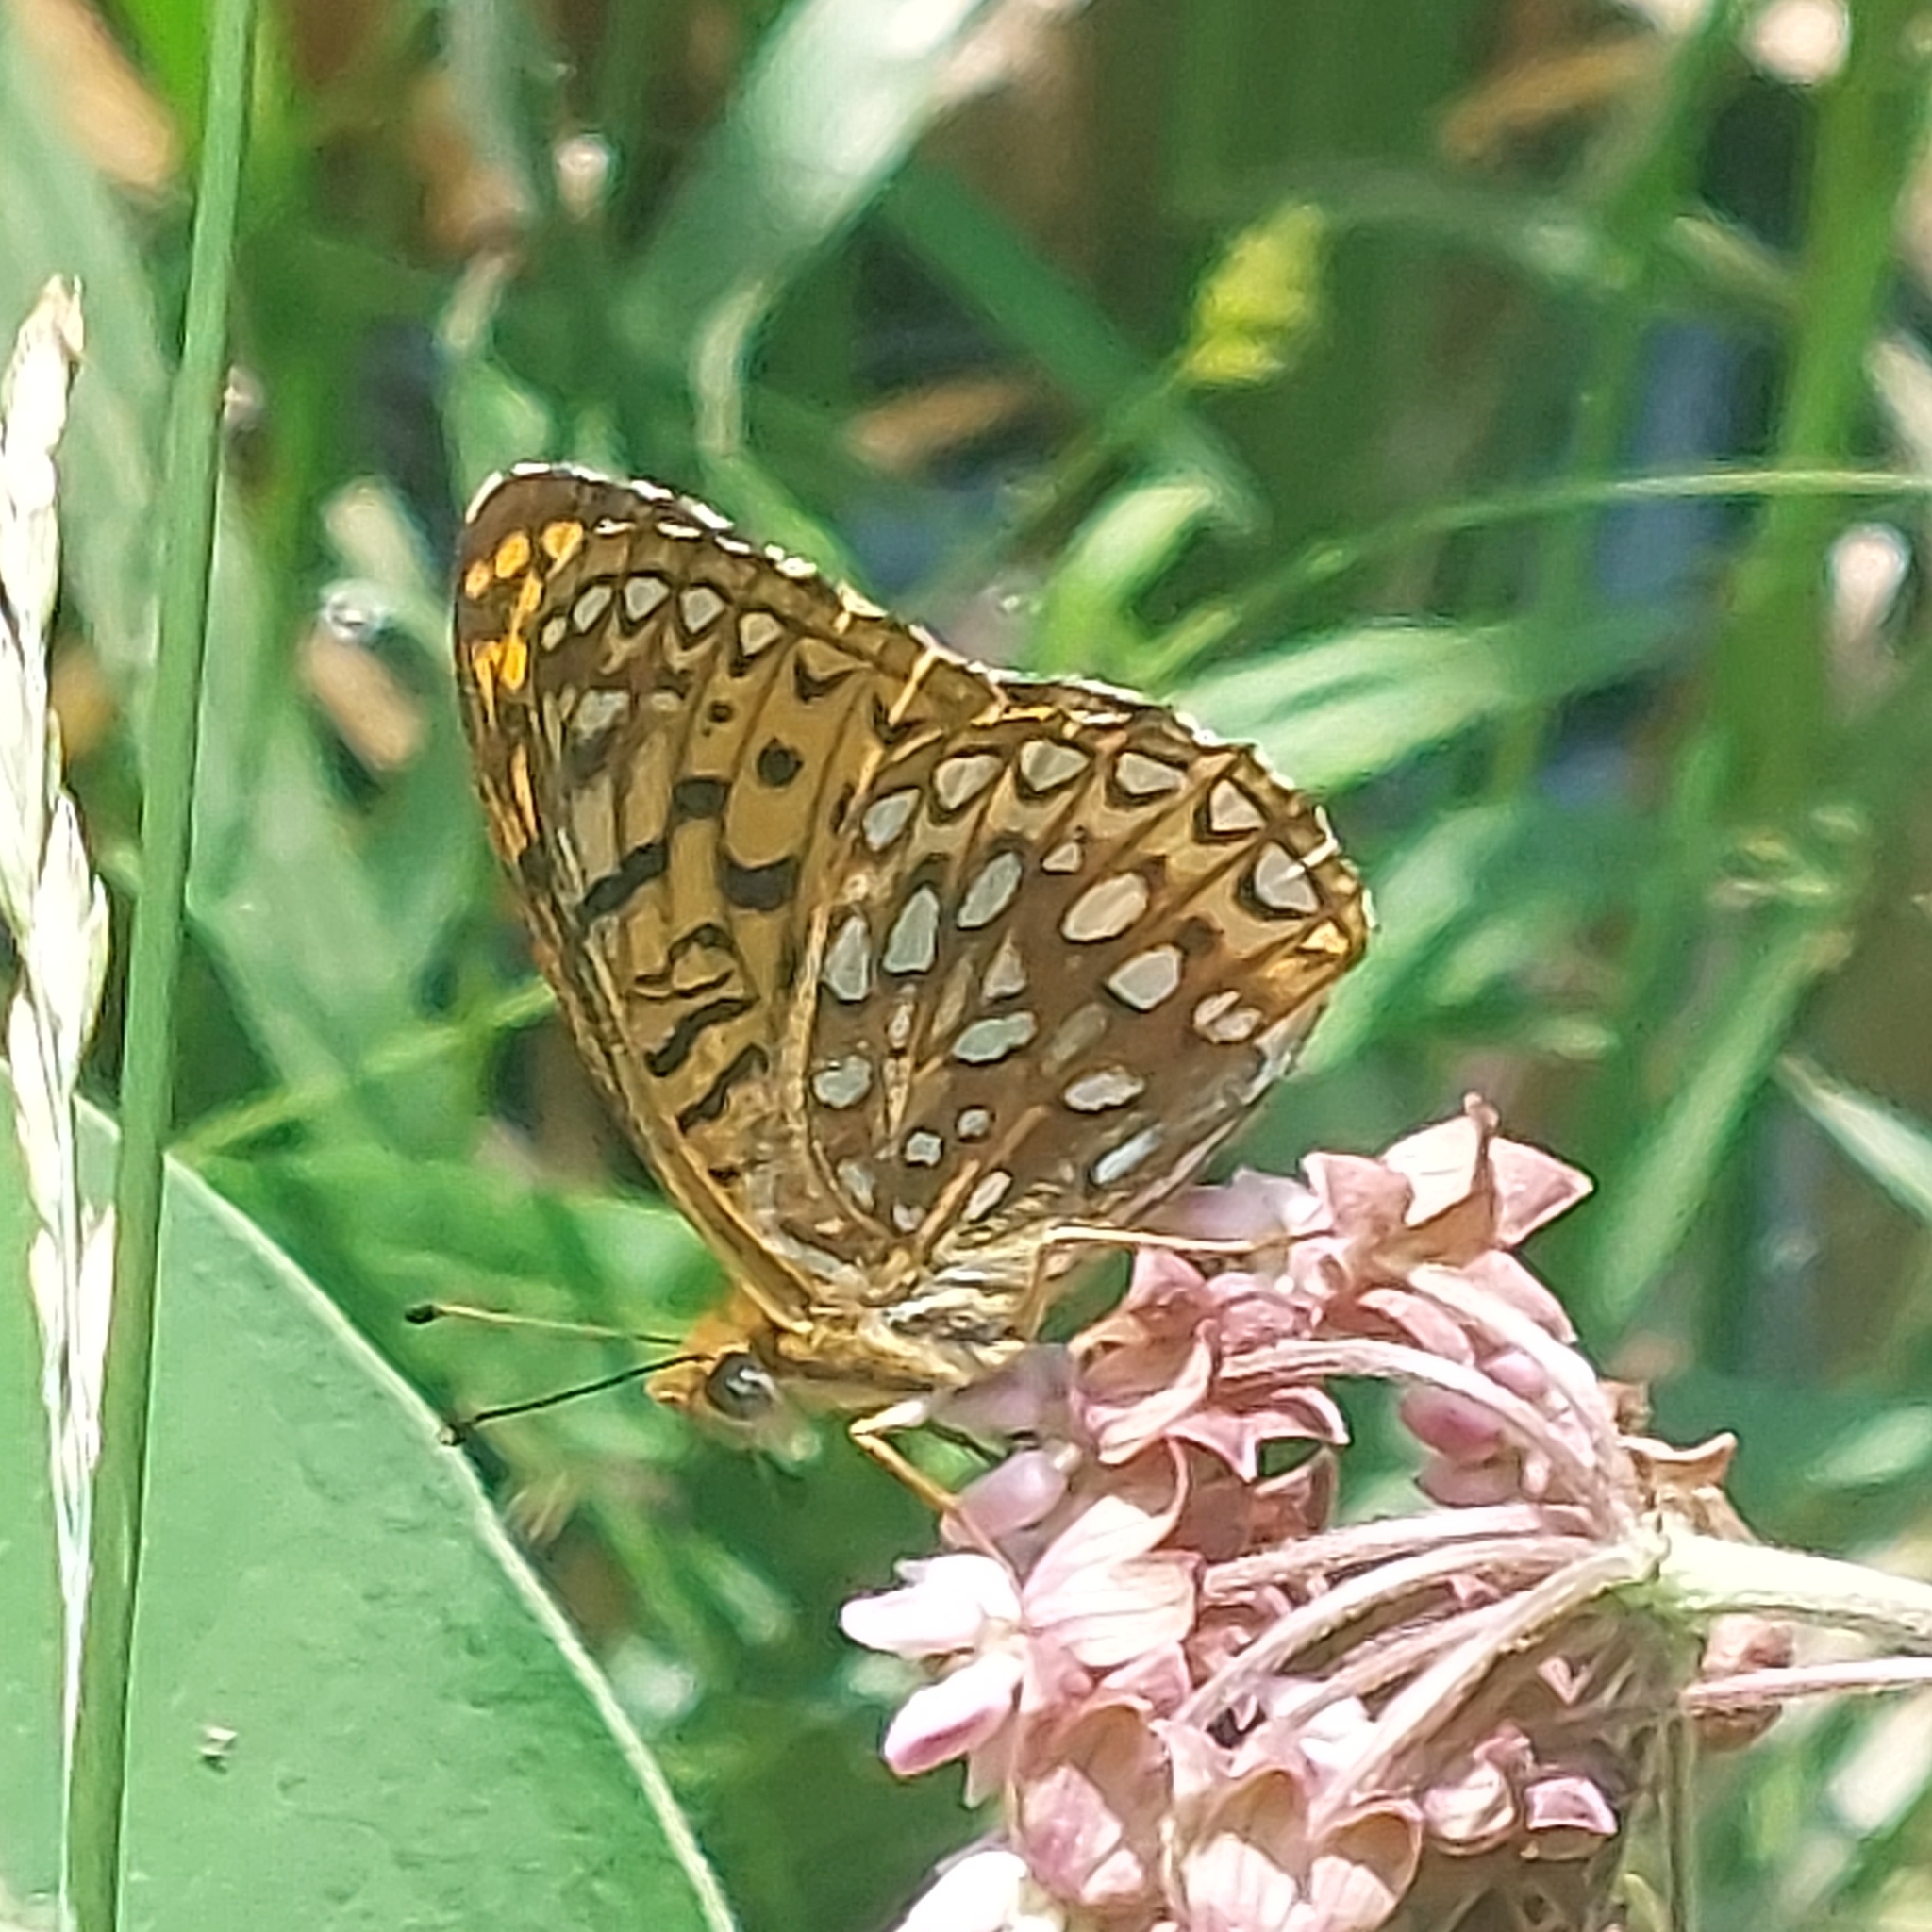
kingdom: Animalia
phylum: Arthropoda
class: Insecta
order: Lepidoptera
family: Nymphalidae
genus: Speyeria
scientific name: Speyeria atlantis
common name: Atlantis fritillary
